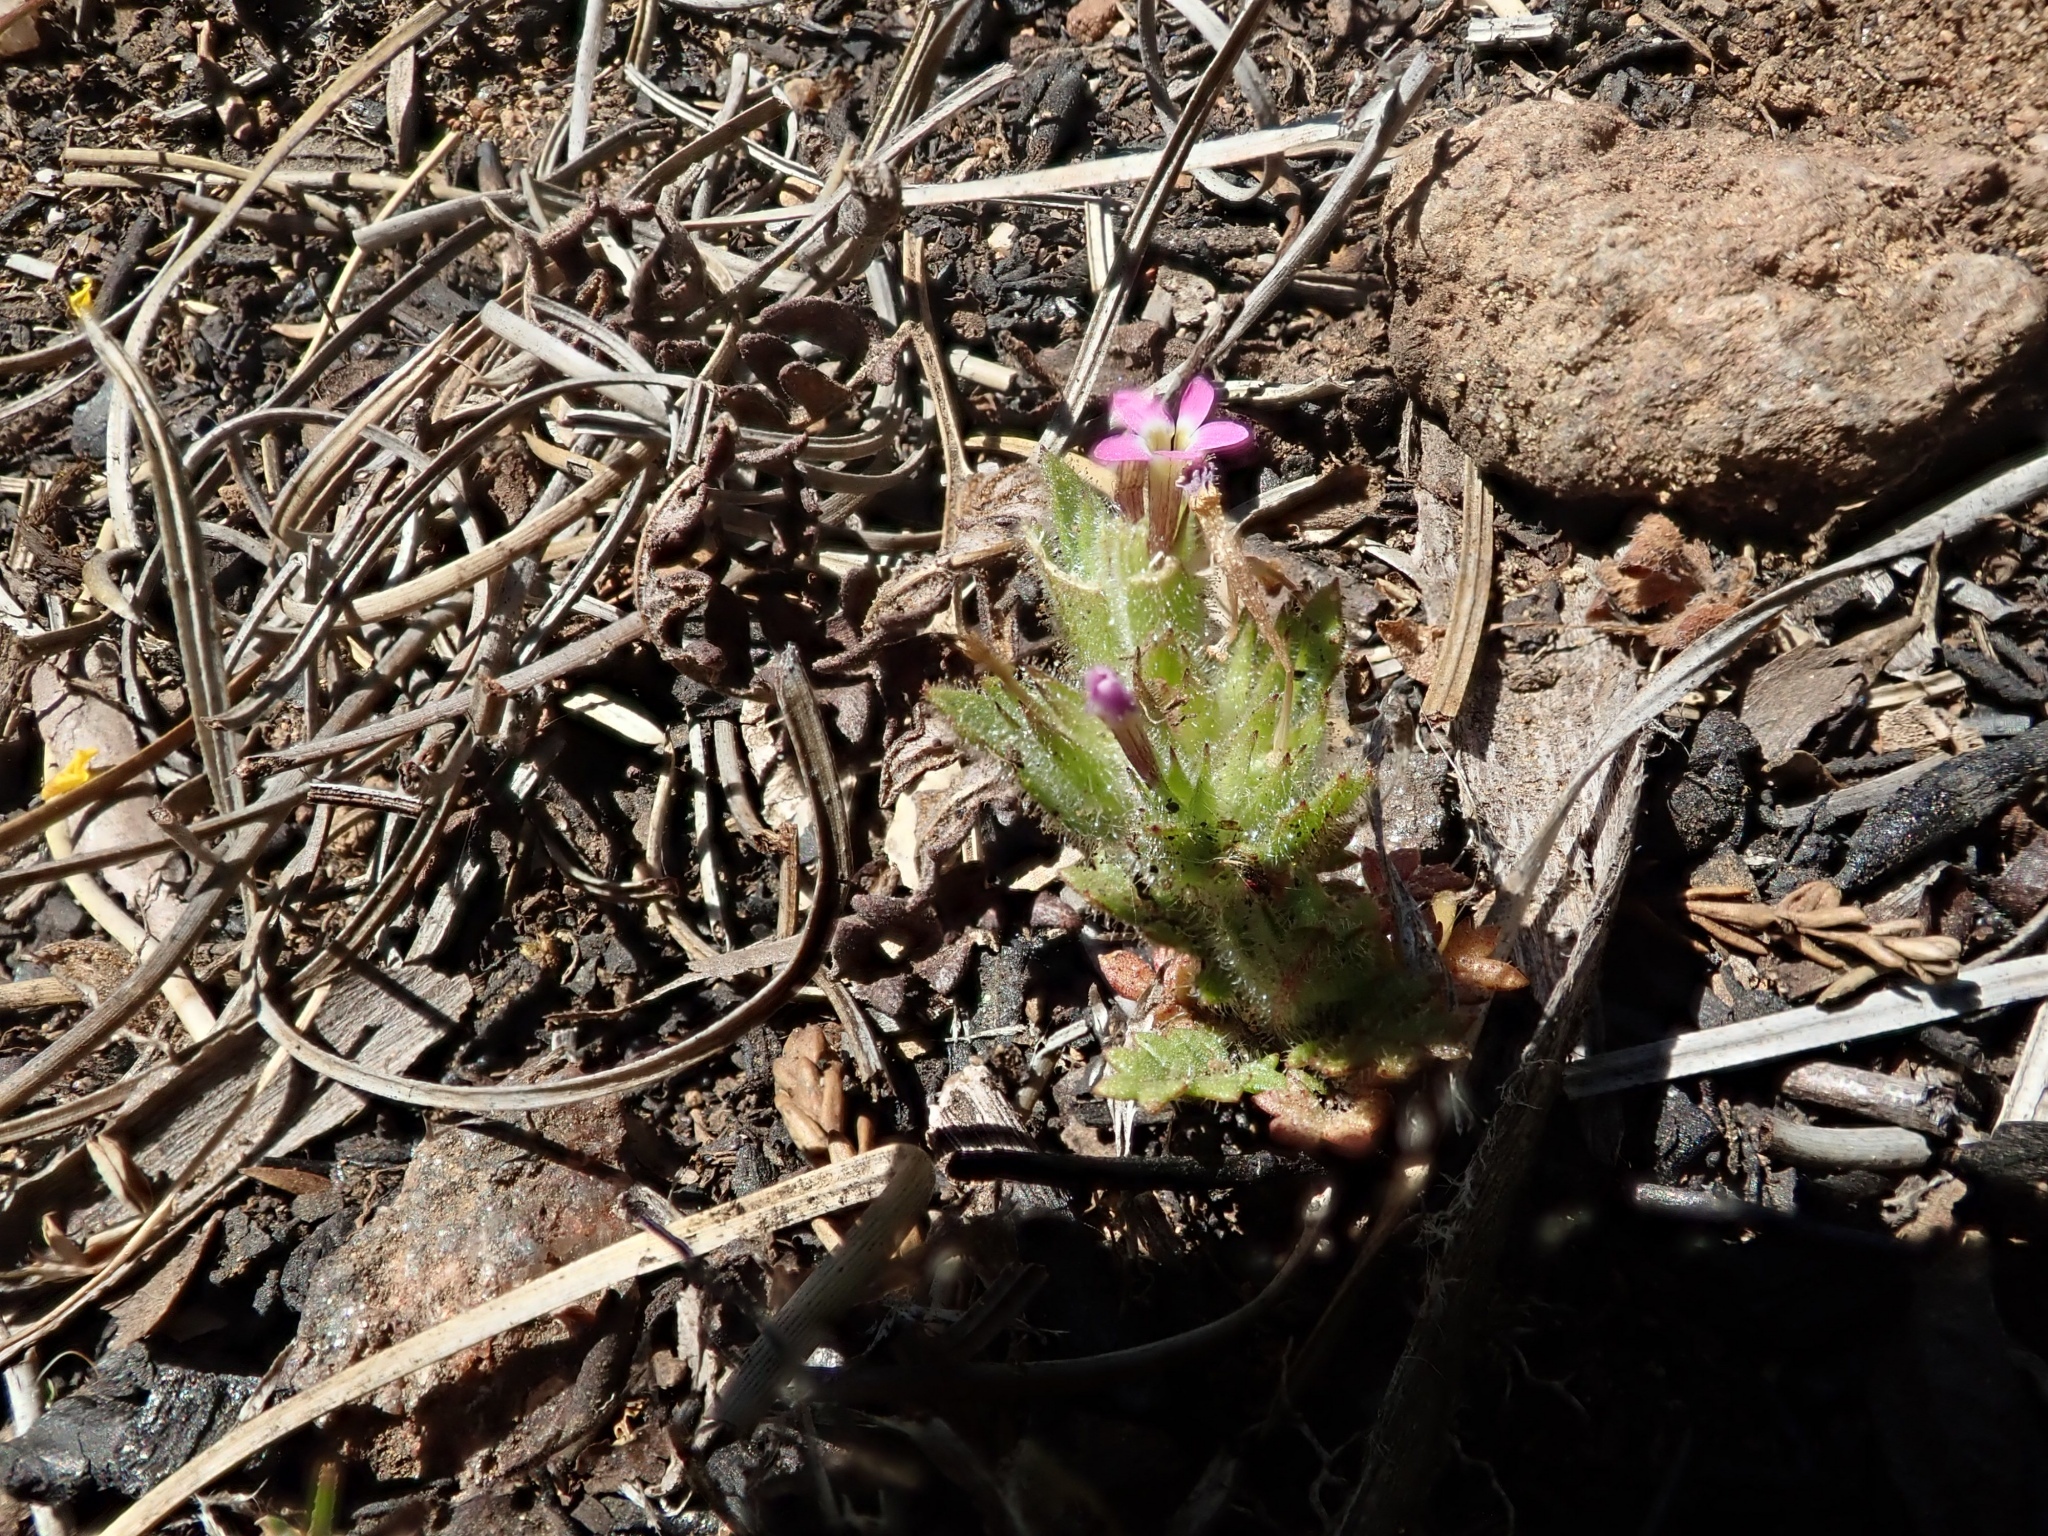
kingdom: Plantae
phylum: Tracheophyta
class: Magnoliopsida
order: Ericales
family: Polemoniaceae
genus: Collomia
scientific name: Collomia heterophylla
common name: Variable-leaved collomia
